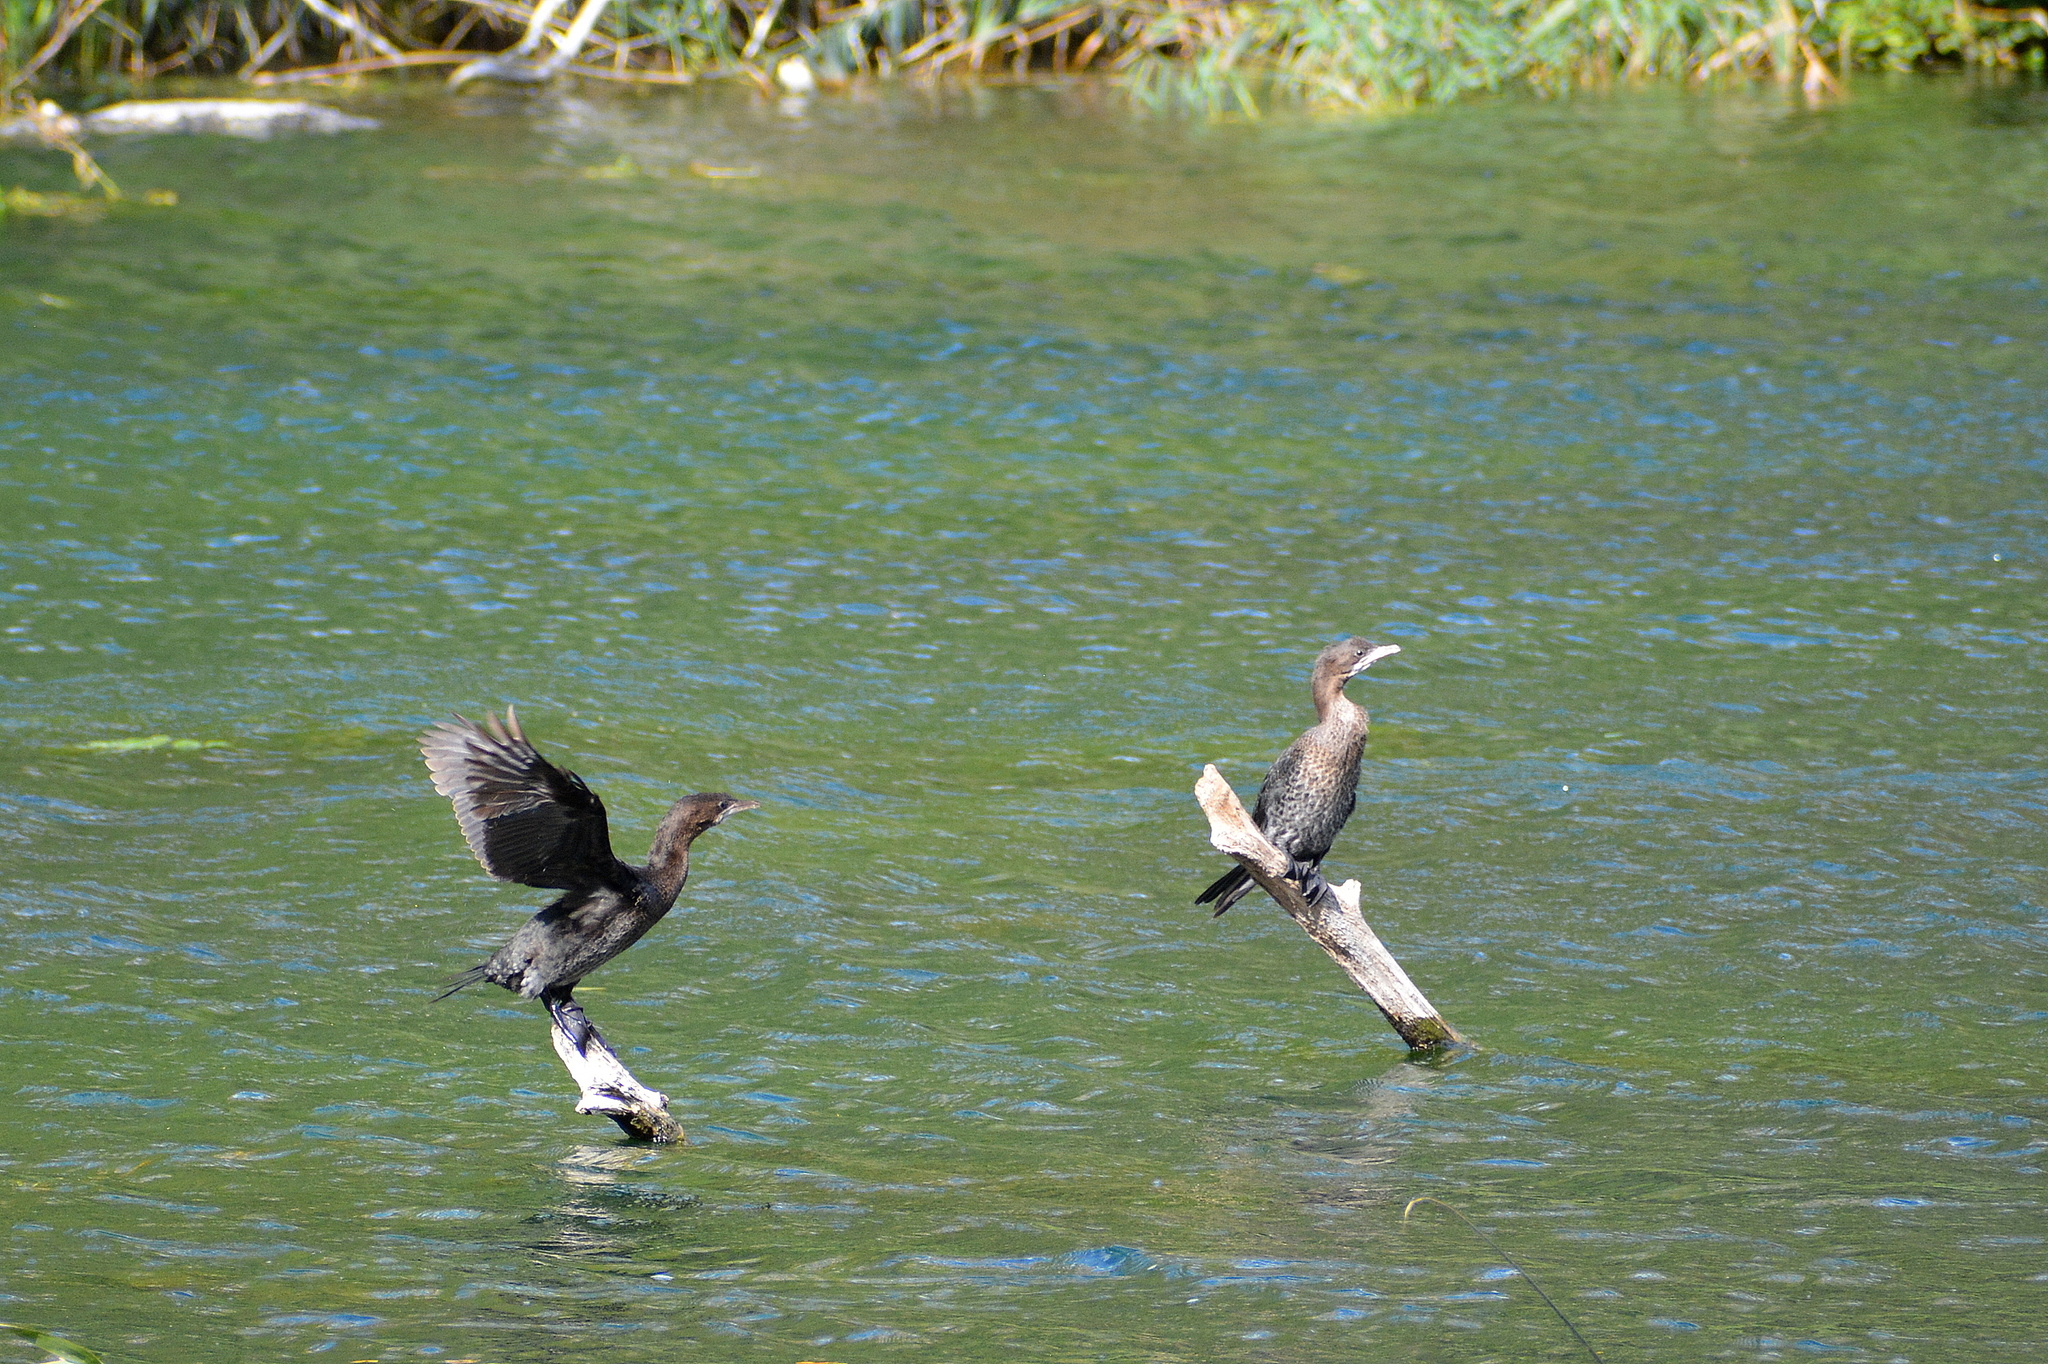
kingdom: Animalia
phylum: Chordata
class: Aves
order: Suliformes
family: Phalacrocoracidae
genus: Microcarbo
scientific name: Microcarbo pygmaeus
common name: Pygmy cormorant
